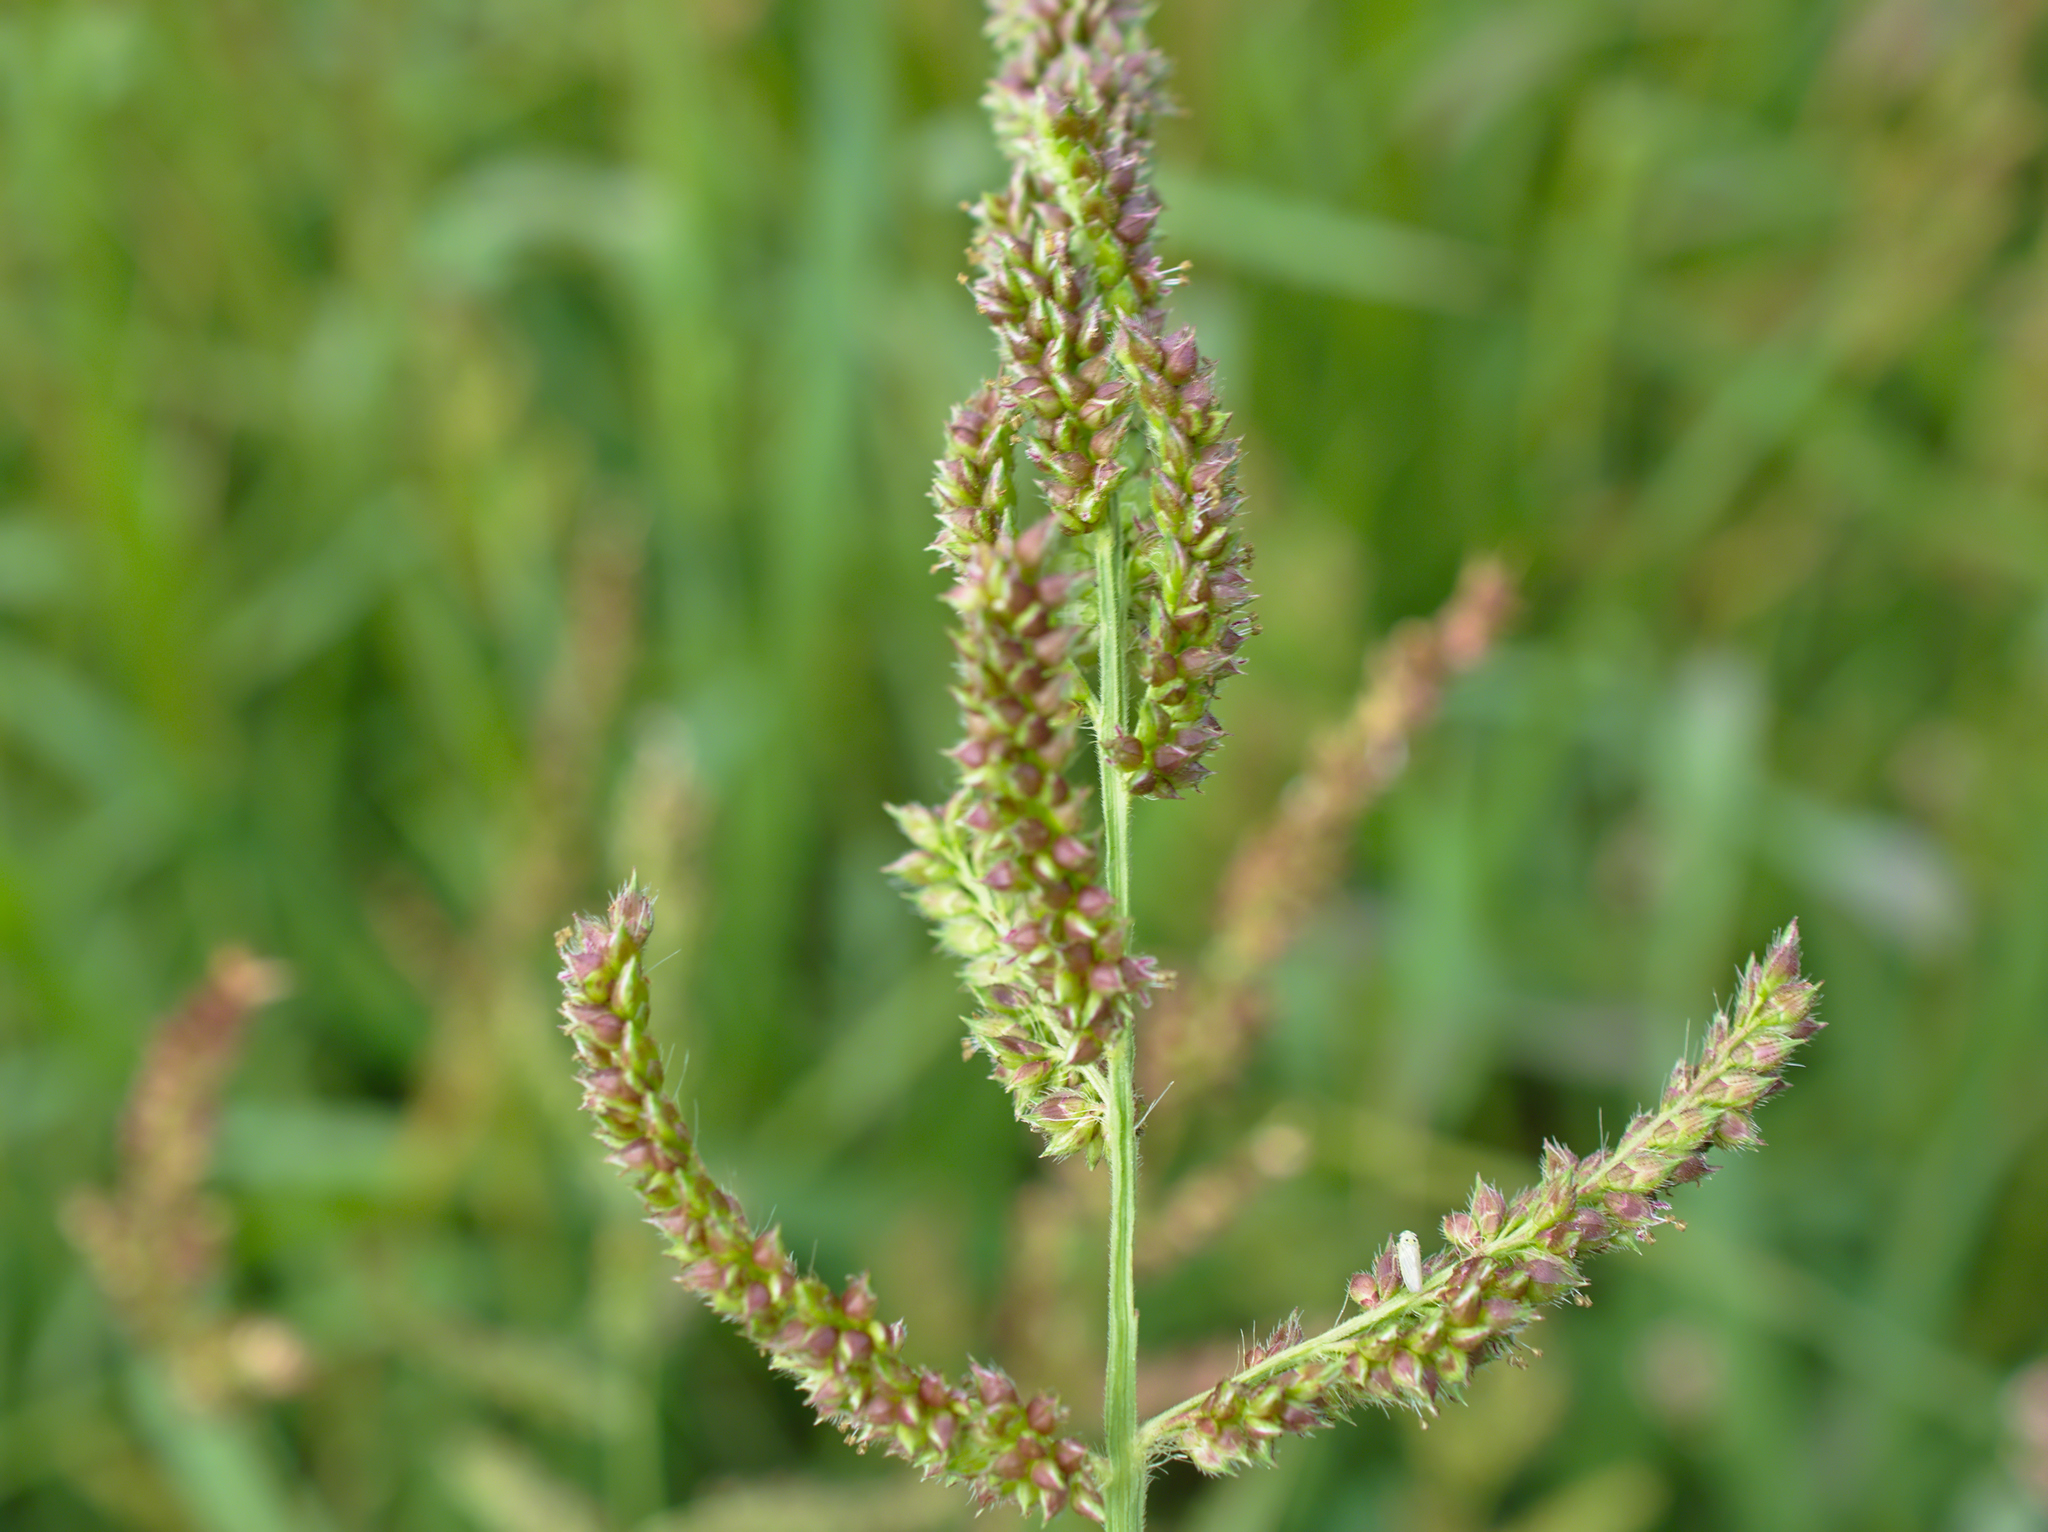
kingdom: Plantae
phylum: Tracheophyta
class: Liliopsida
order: Poales
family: Poaceae
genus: Echinochloa
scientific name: Echinochloa crus-galli
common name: Cockspur
